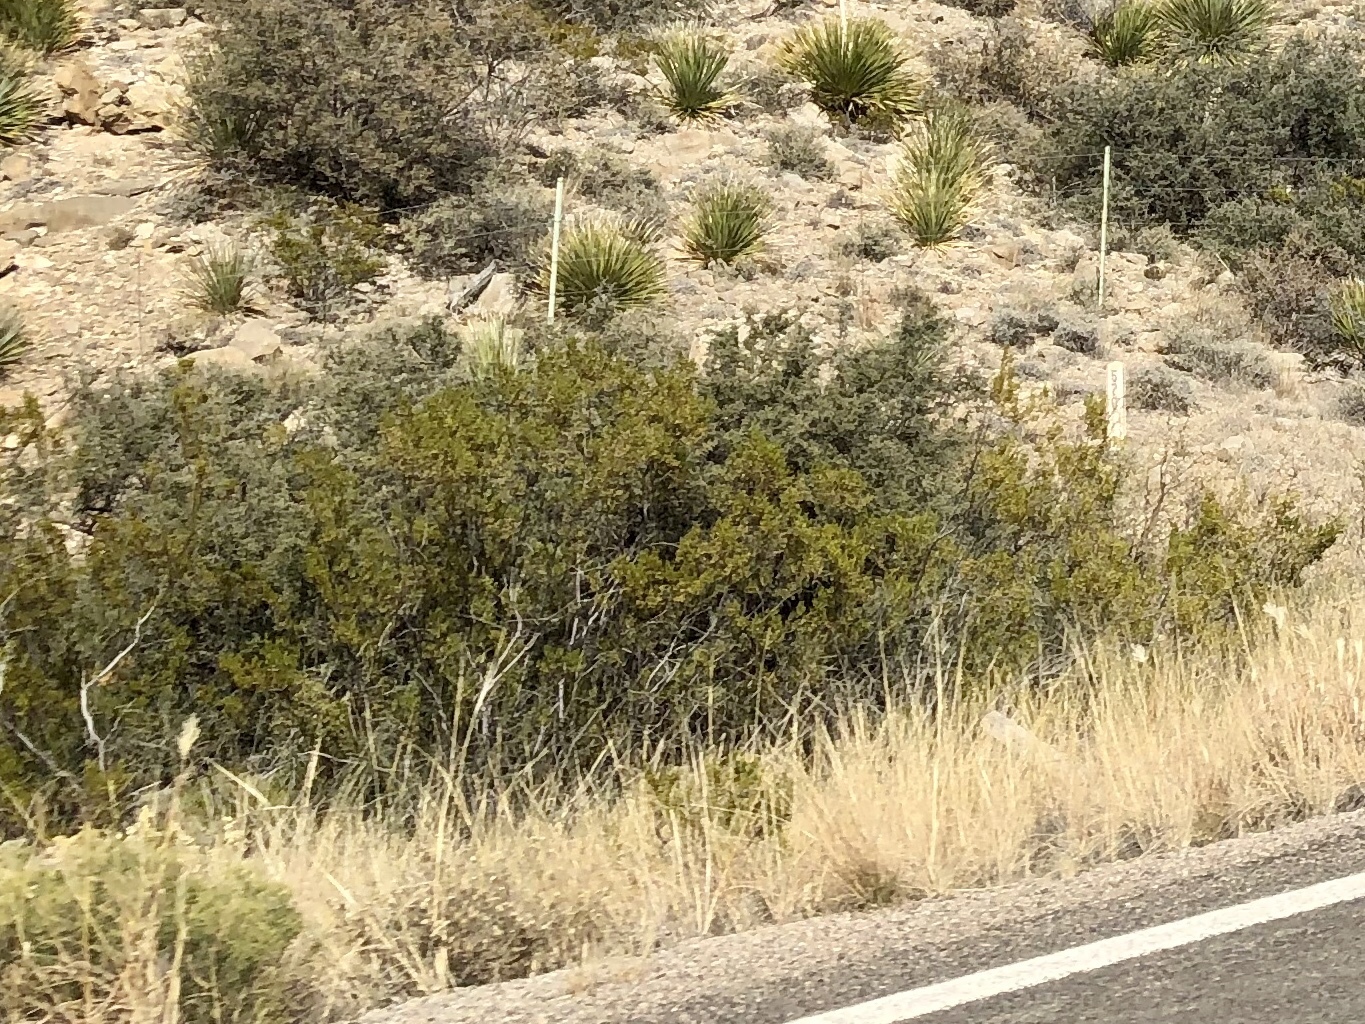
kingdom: Plantae
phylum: Tracheophyta
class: Magnoliopsida
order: Zygophyllales
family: Zygophyllaceae
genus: Larrea
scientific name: Larrea tridentata
